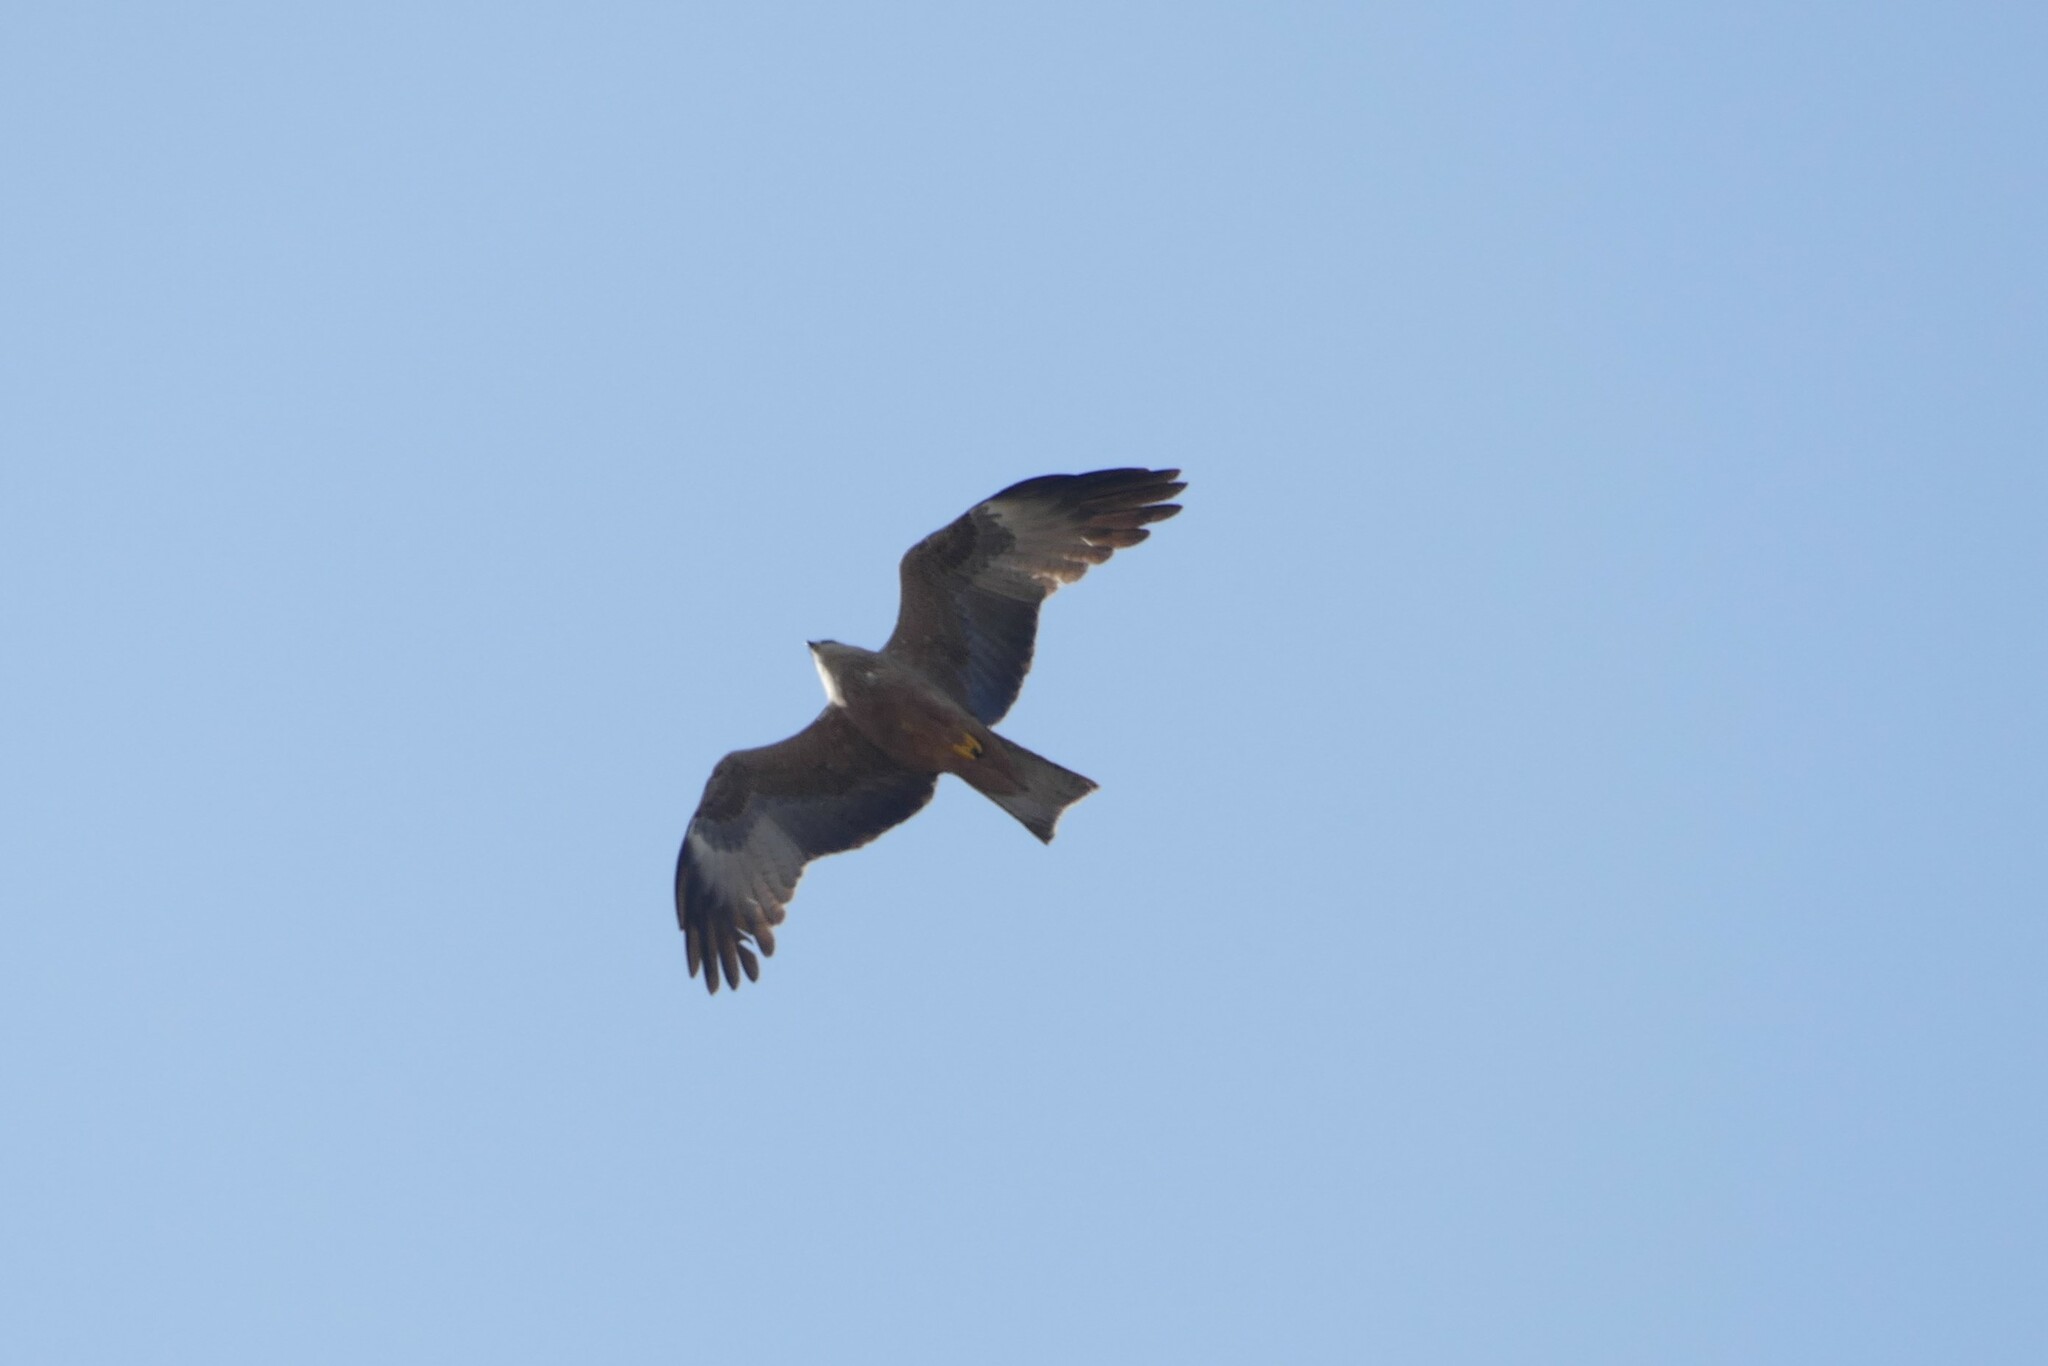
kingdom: Animalia
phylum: Chordata
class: Aves
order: Accipitriformes
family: Accipitridae
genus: Milvus
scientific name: Milvus milvus
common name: Red kite
